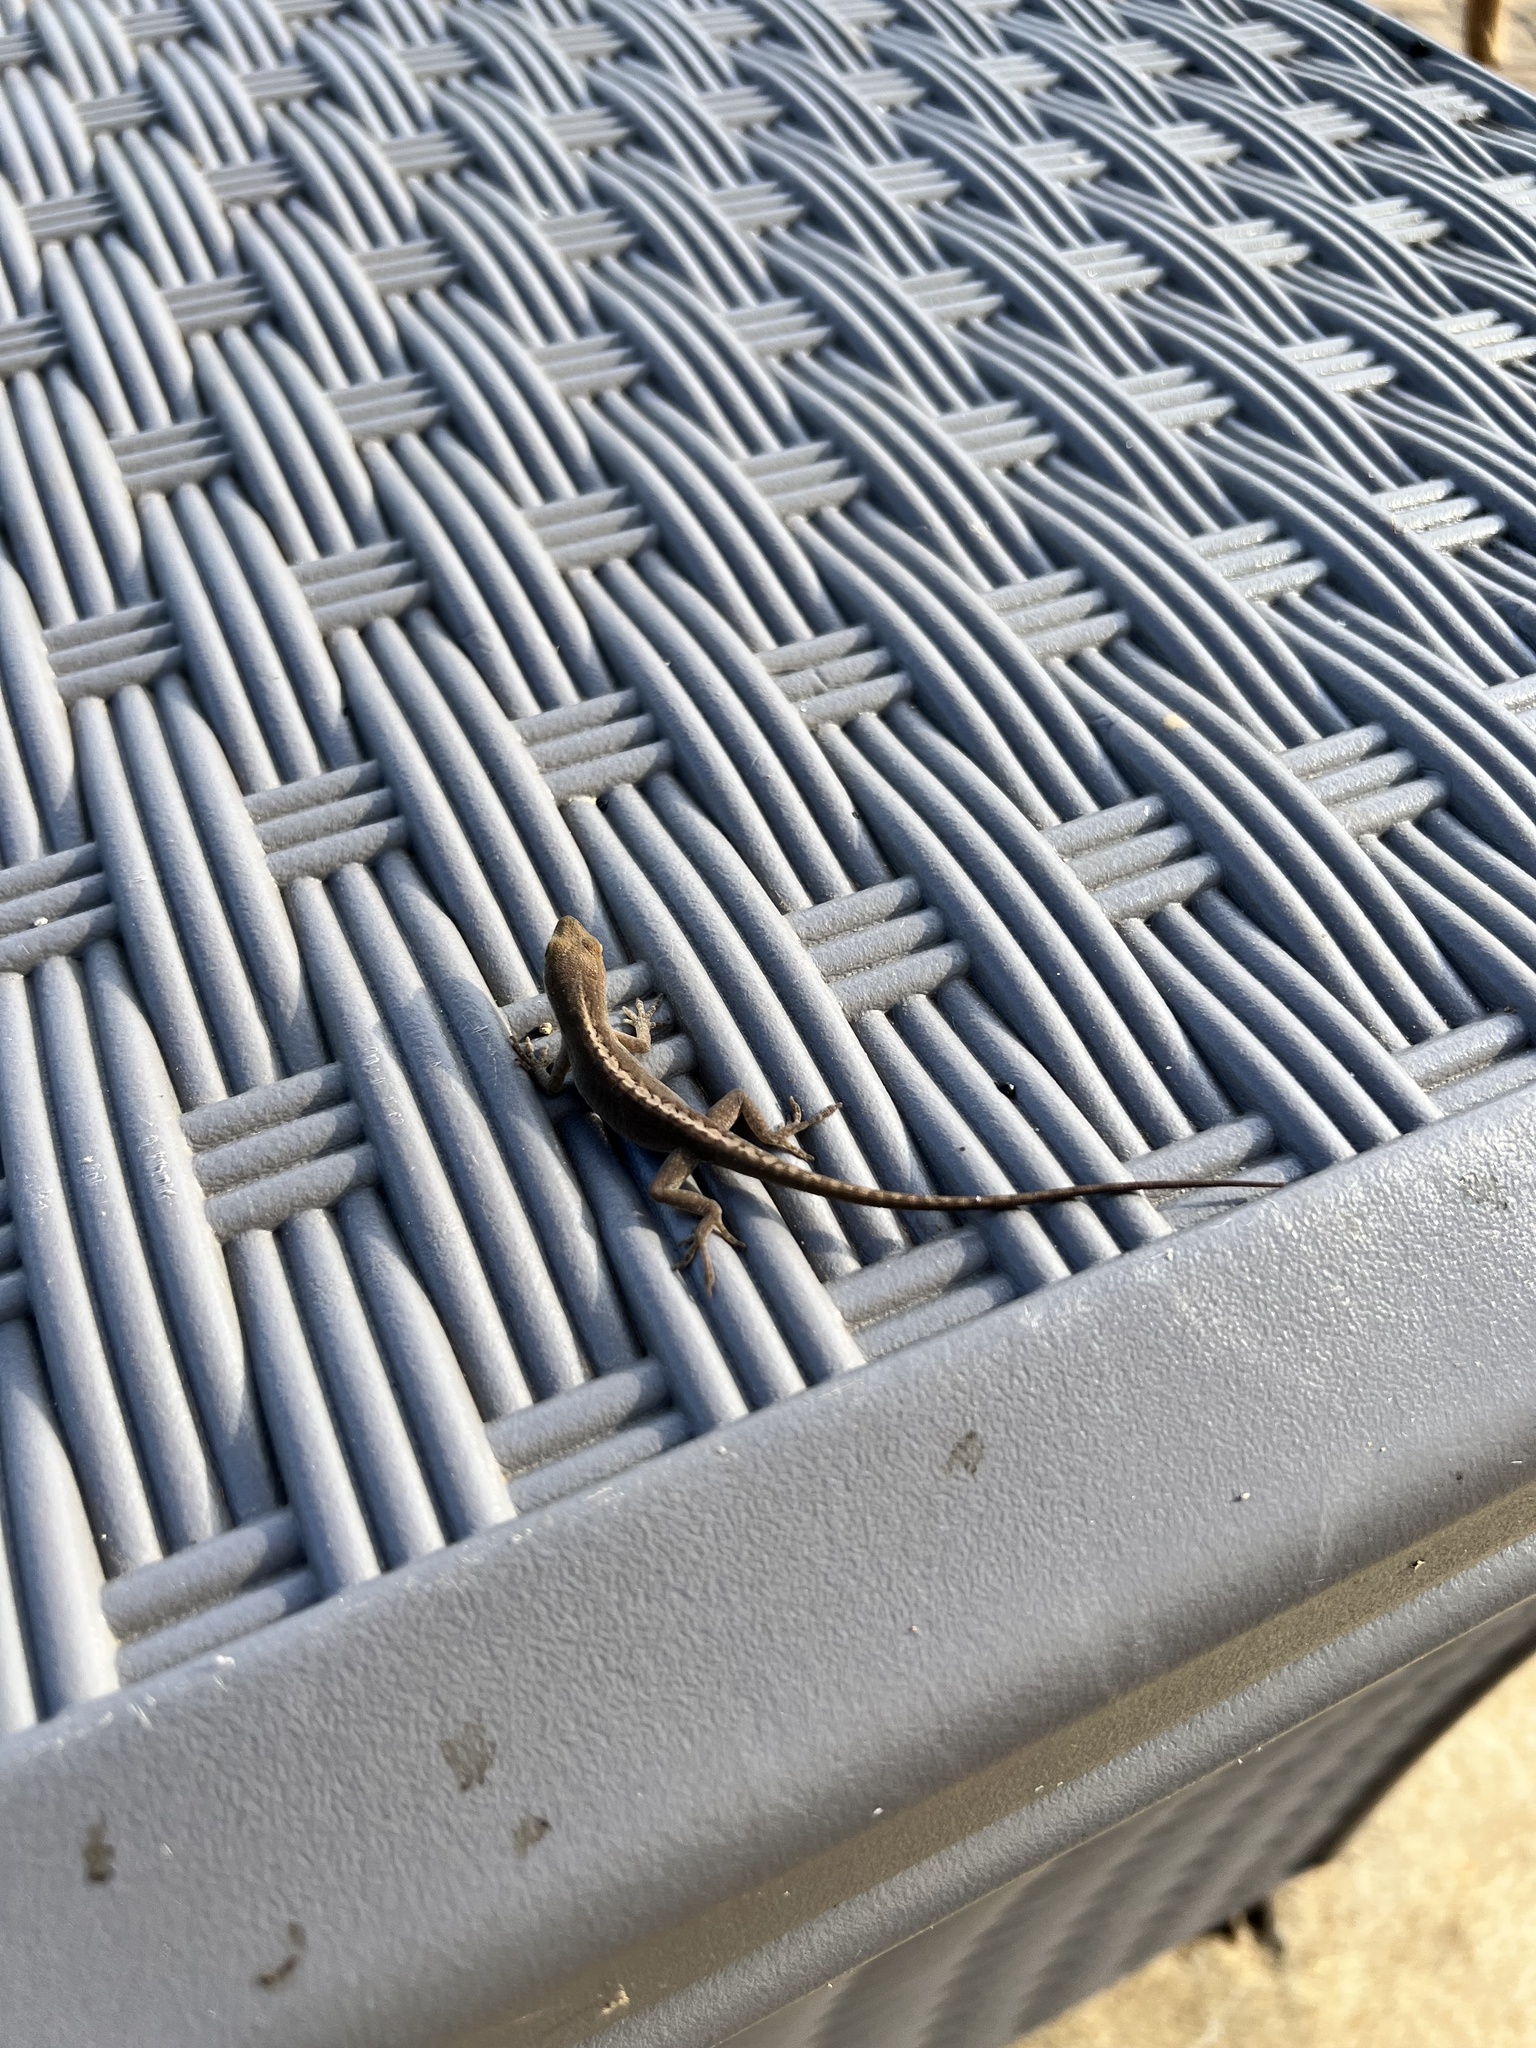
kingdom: Animalia
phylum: Chordata
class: Squamata
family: Dactyloidae
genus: Anolis
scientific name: Anolis carolinensis
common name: Green anole
